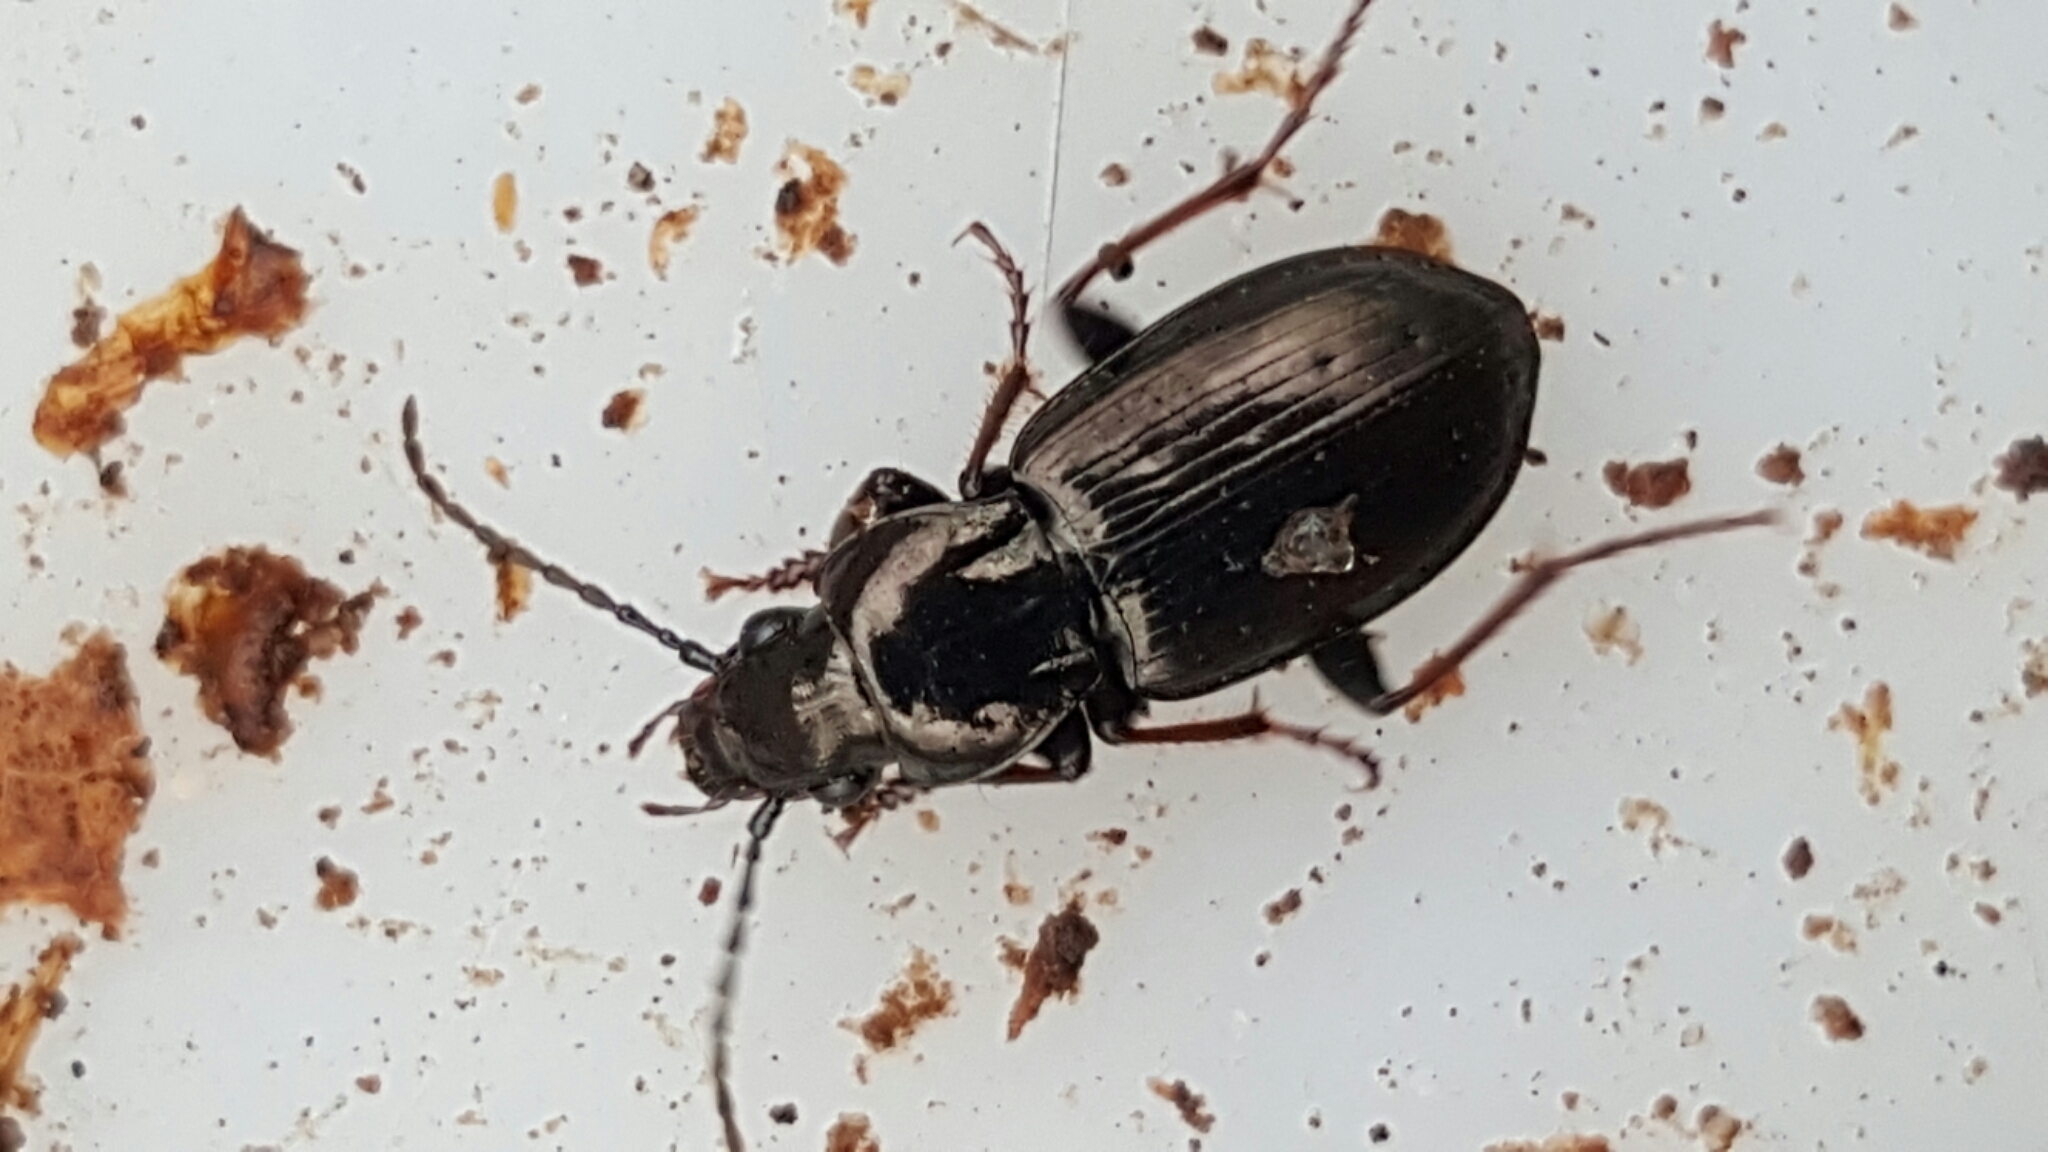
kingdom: Animalia
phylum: Arthropoda
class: Insecta
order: Coleoptera
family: Carabidae
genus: Pterostichus
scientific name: Pterostichus oblongopunctatus
